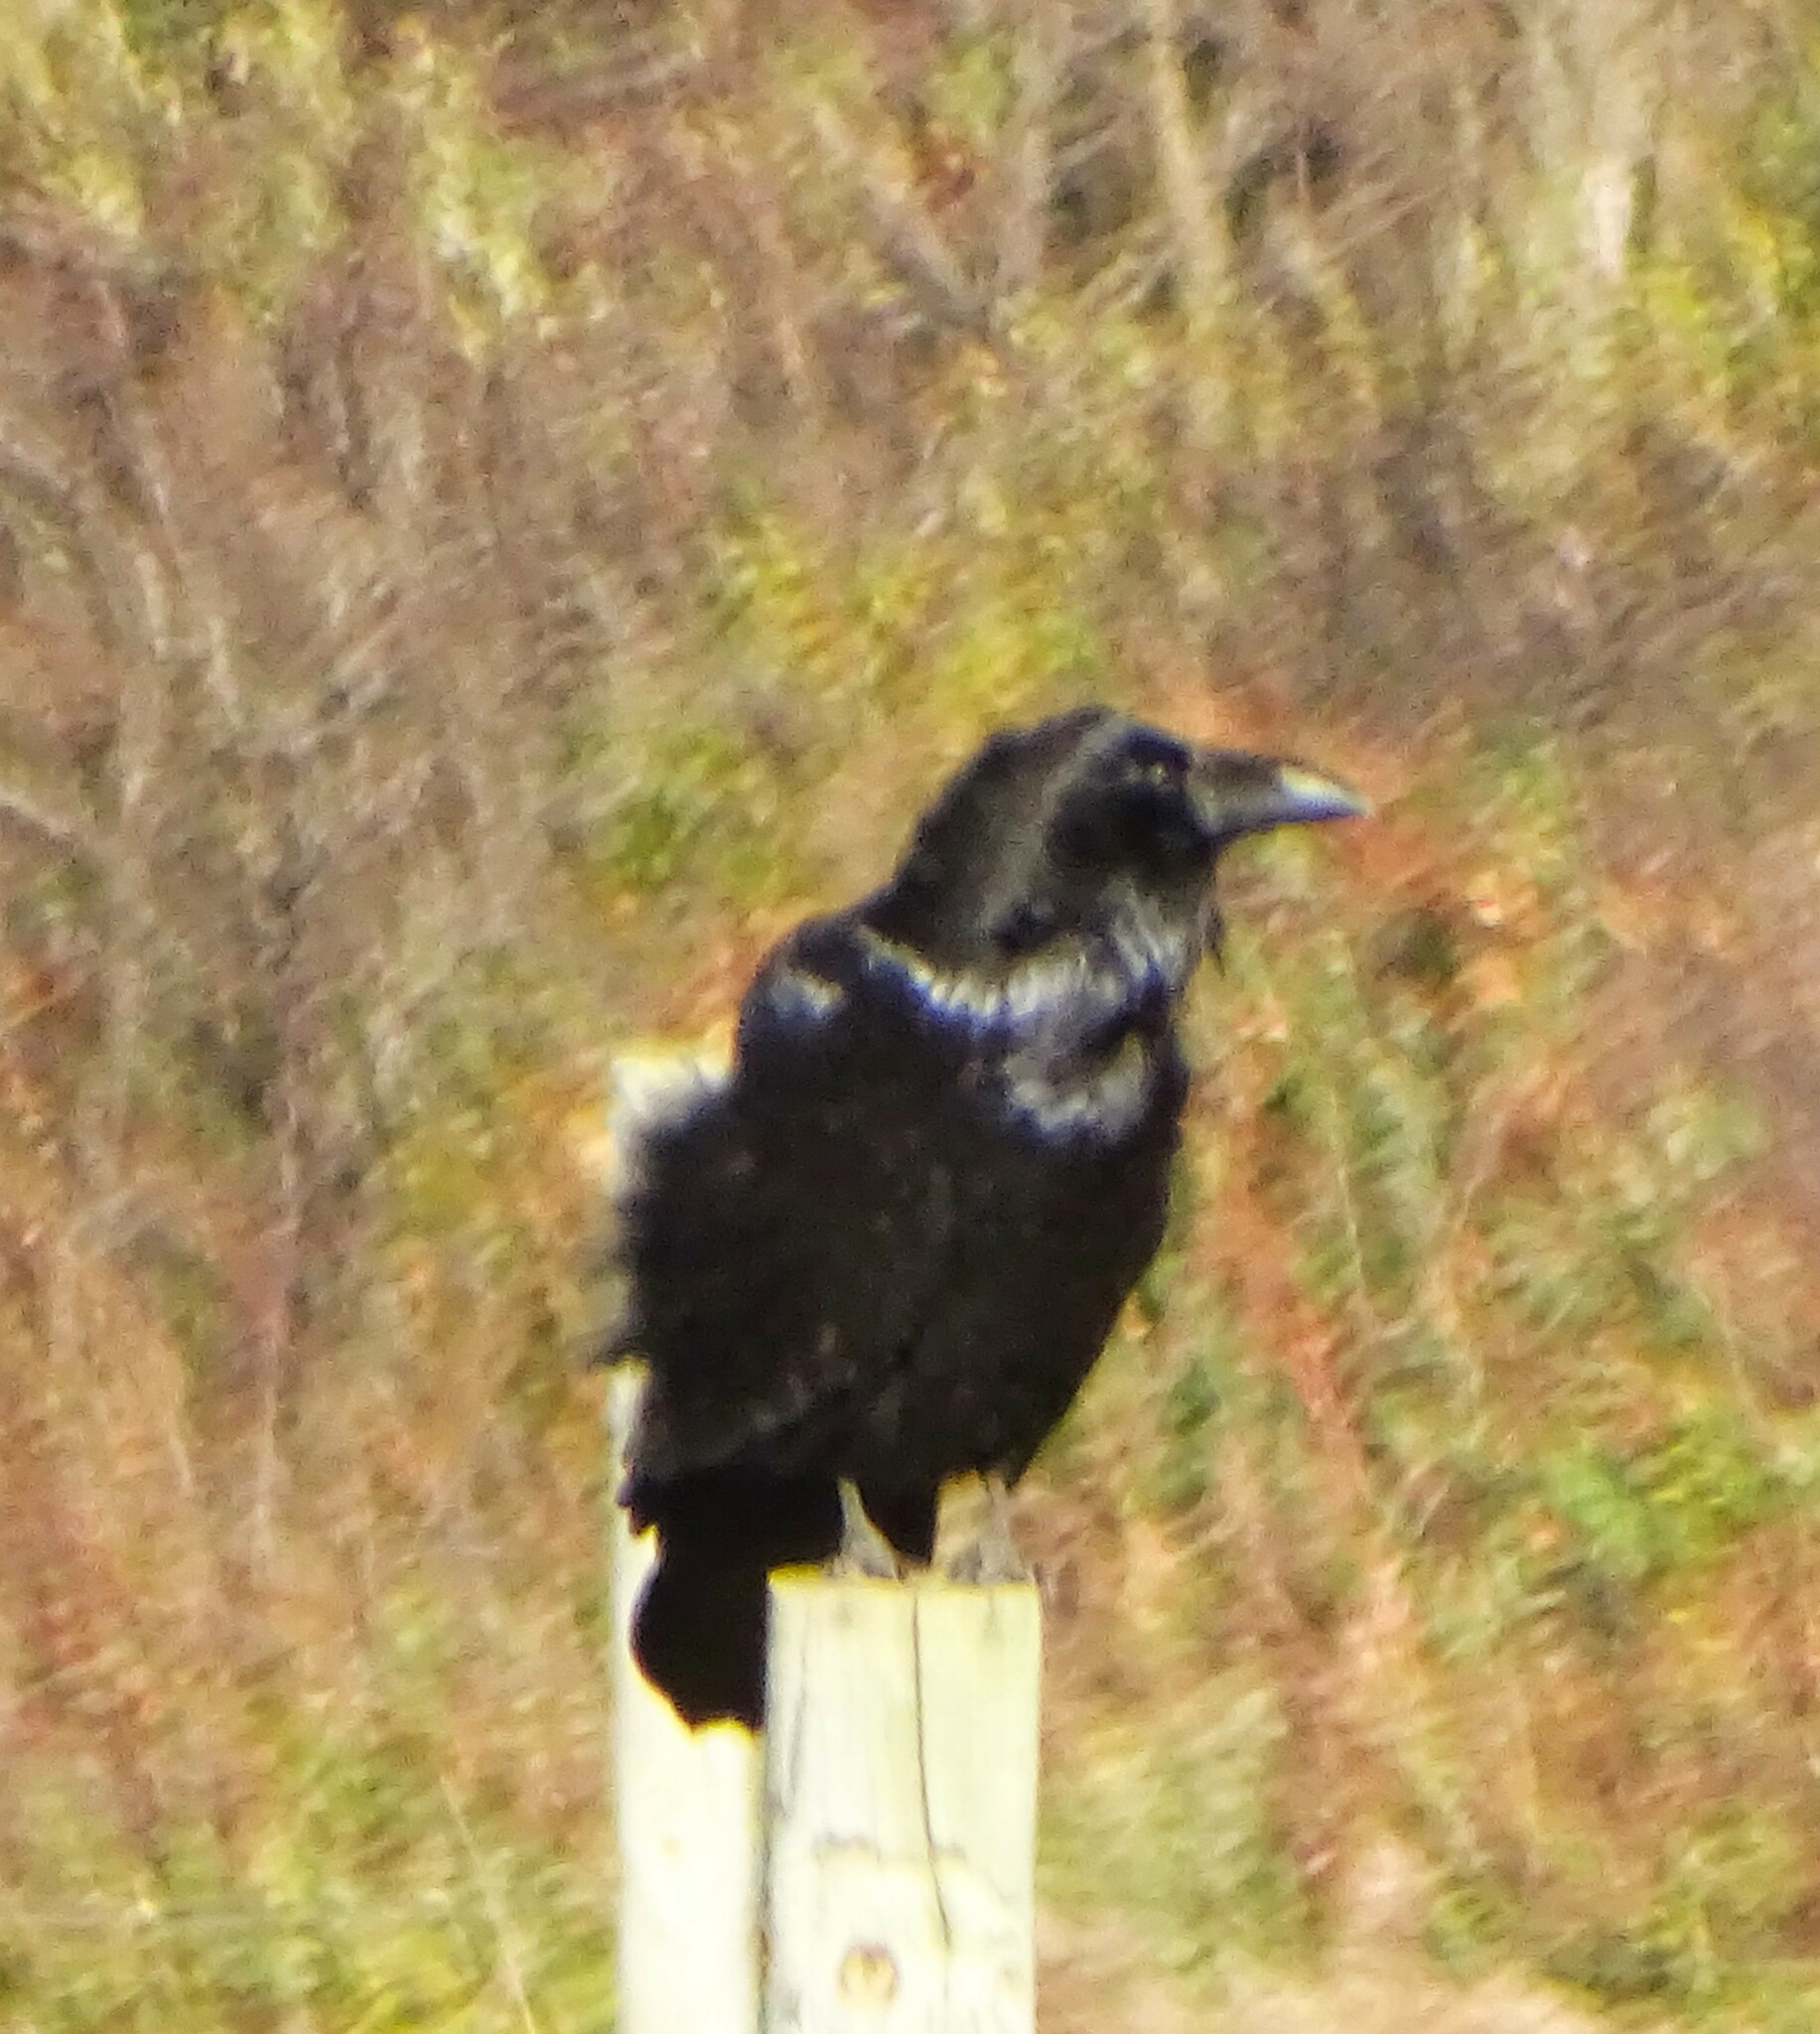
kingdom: Animalia
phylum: Chordata
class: Aves
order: Passeriformes
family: Corvidae
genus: Corvus
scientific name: Corvus corax
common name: Common raven
